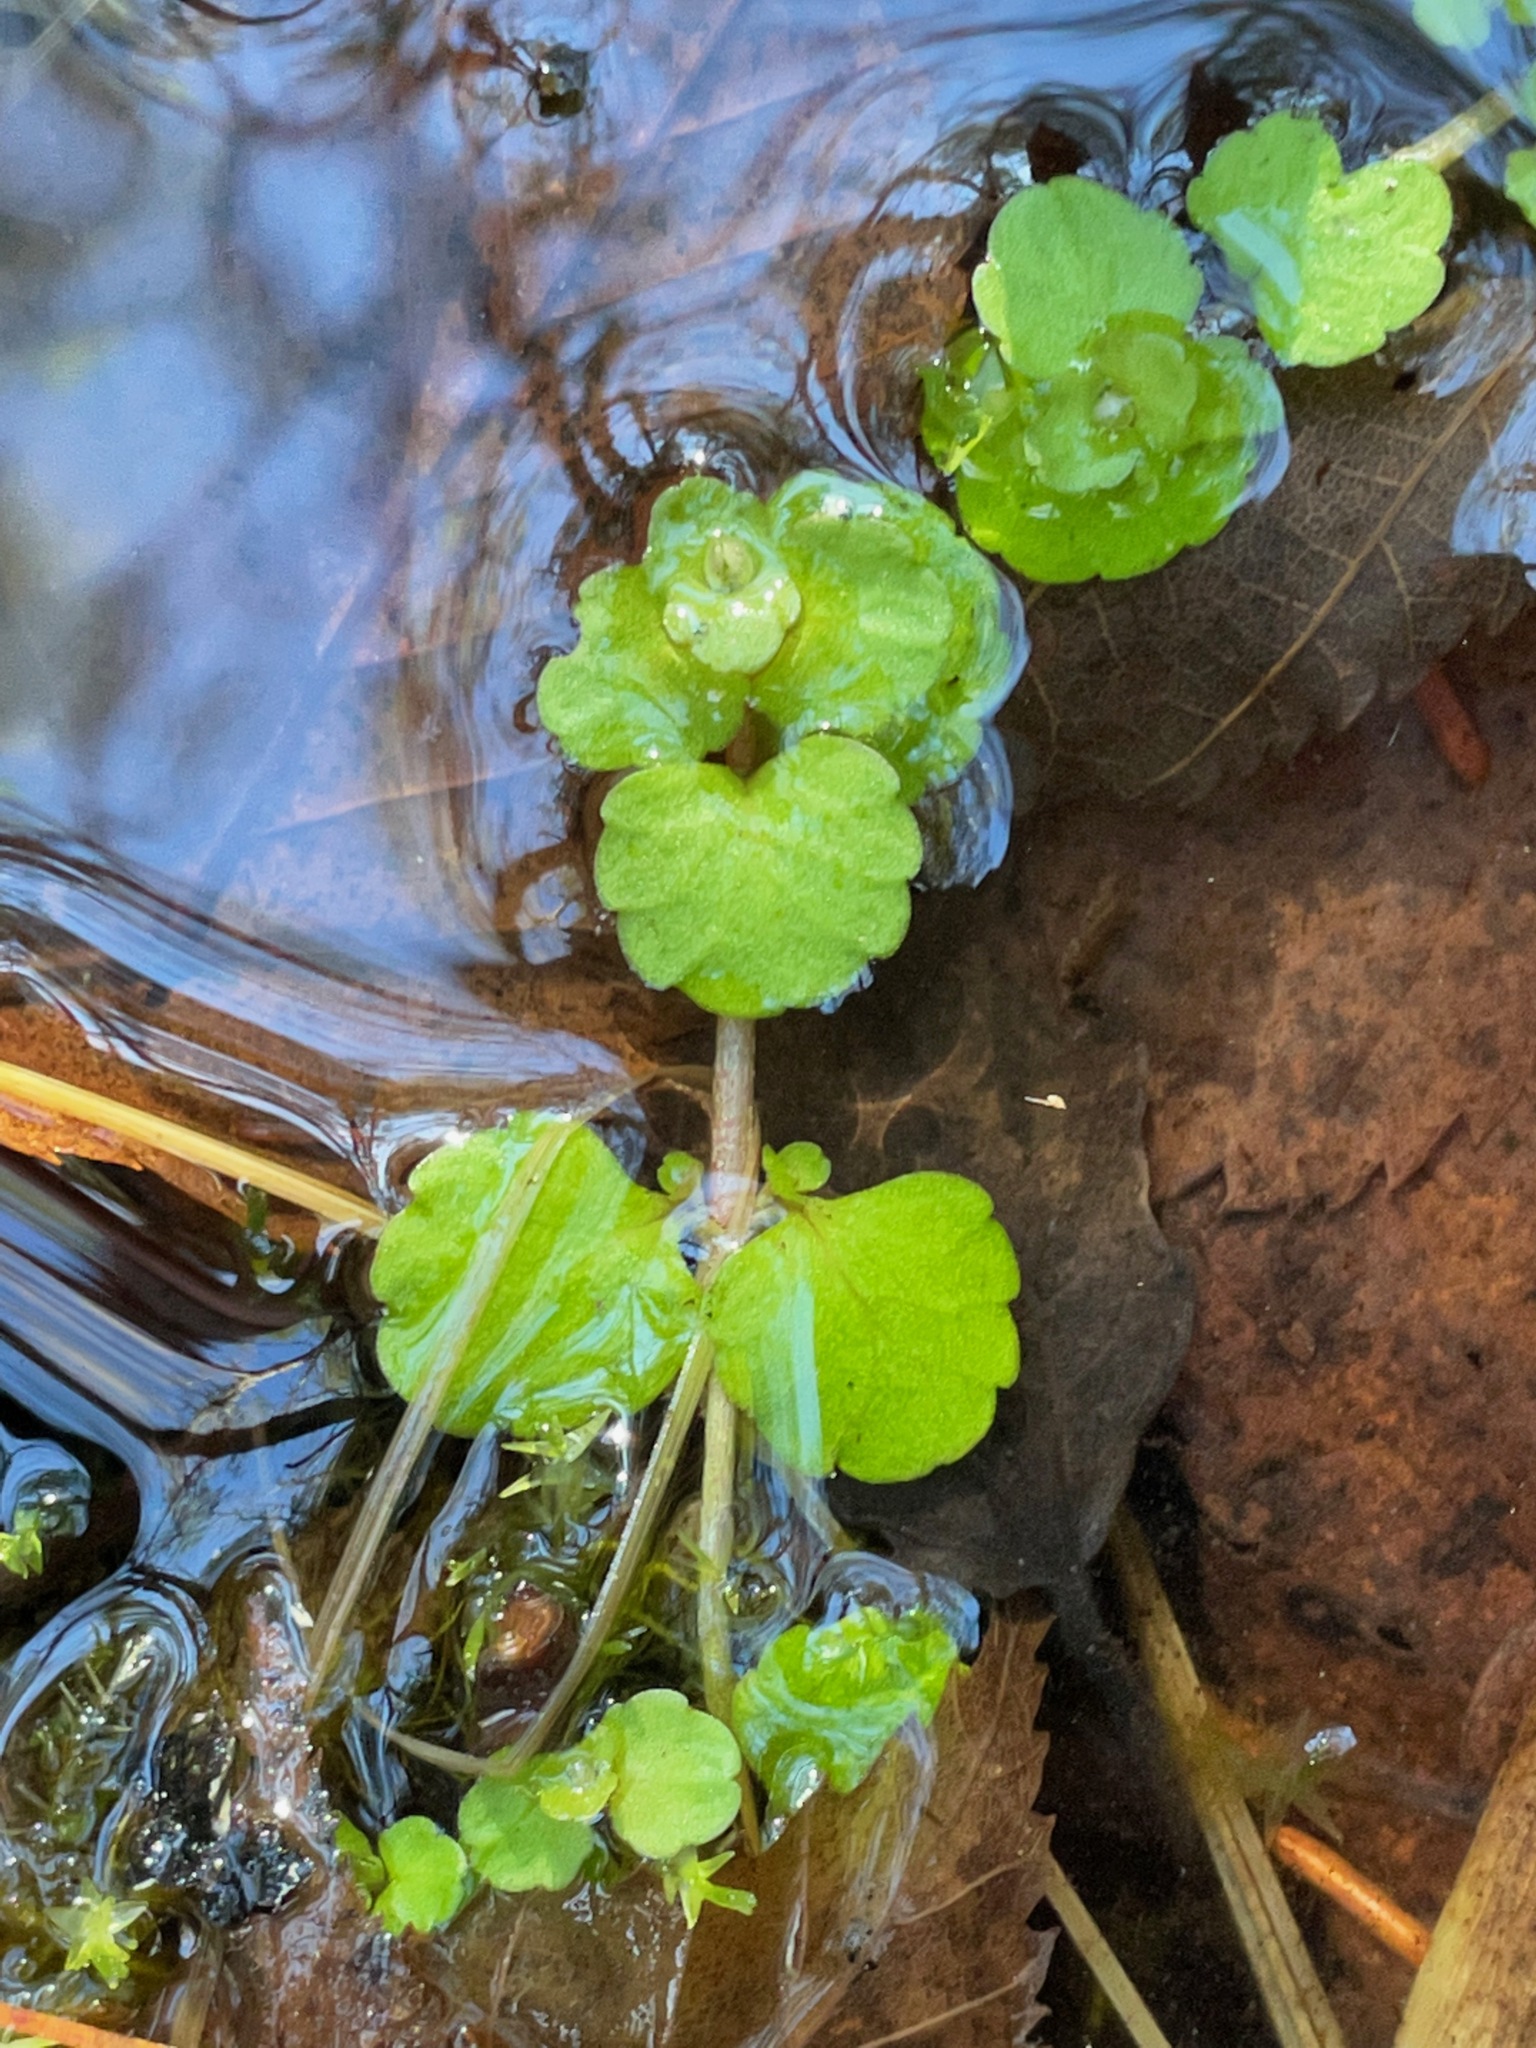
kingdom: Plantae
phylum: Tracheophyta
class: Magnoliopsida
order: Saxifragales
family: Saxifragaceae
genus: Chrysosplenium
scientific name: Chrysosplenium americanum
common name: American golden-saxifrage
